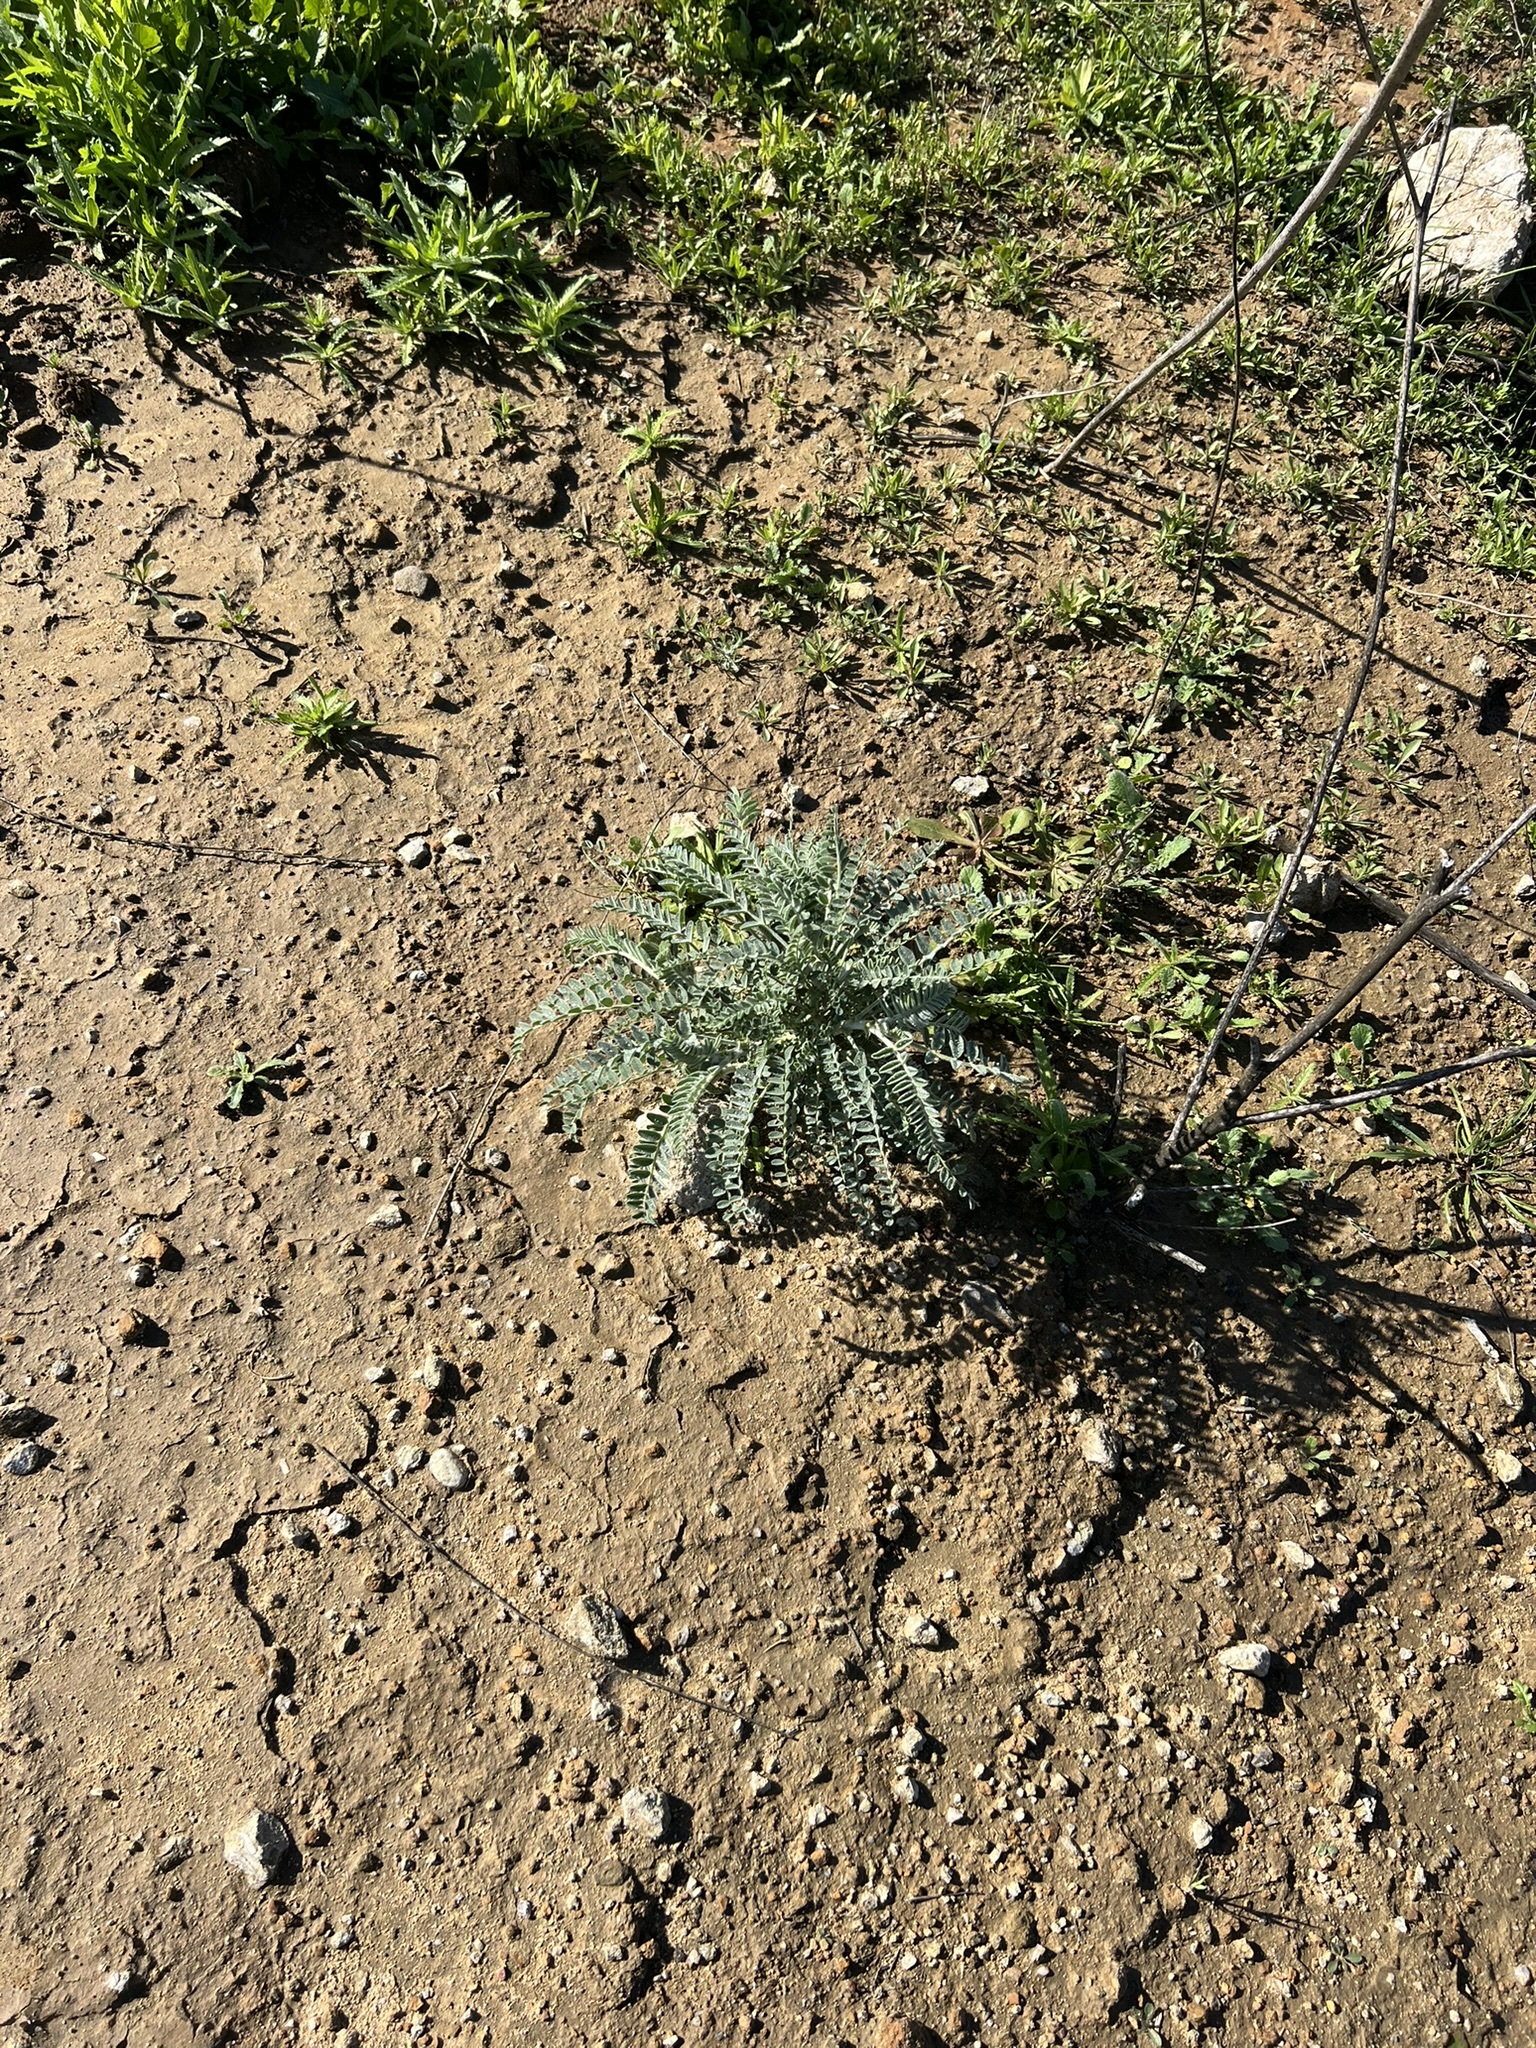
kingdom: Plantae
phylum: Tracheophyta
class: Magnoliopsida
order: Fabales
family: Fabaceae
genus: Astragalus
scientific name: Astragalus brauntonii
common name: Braunton's milk-vetch
